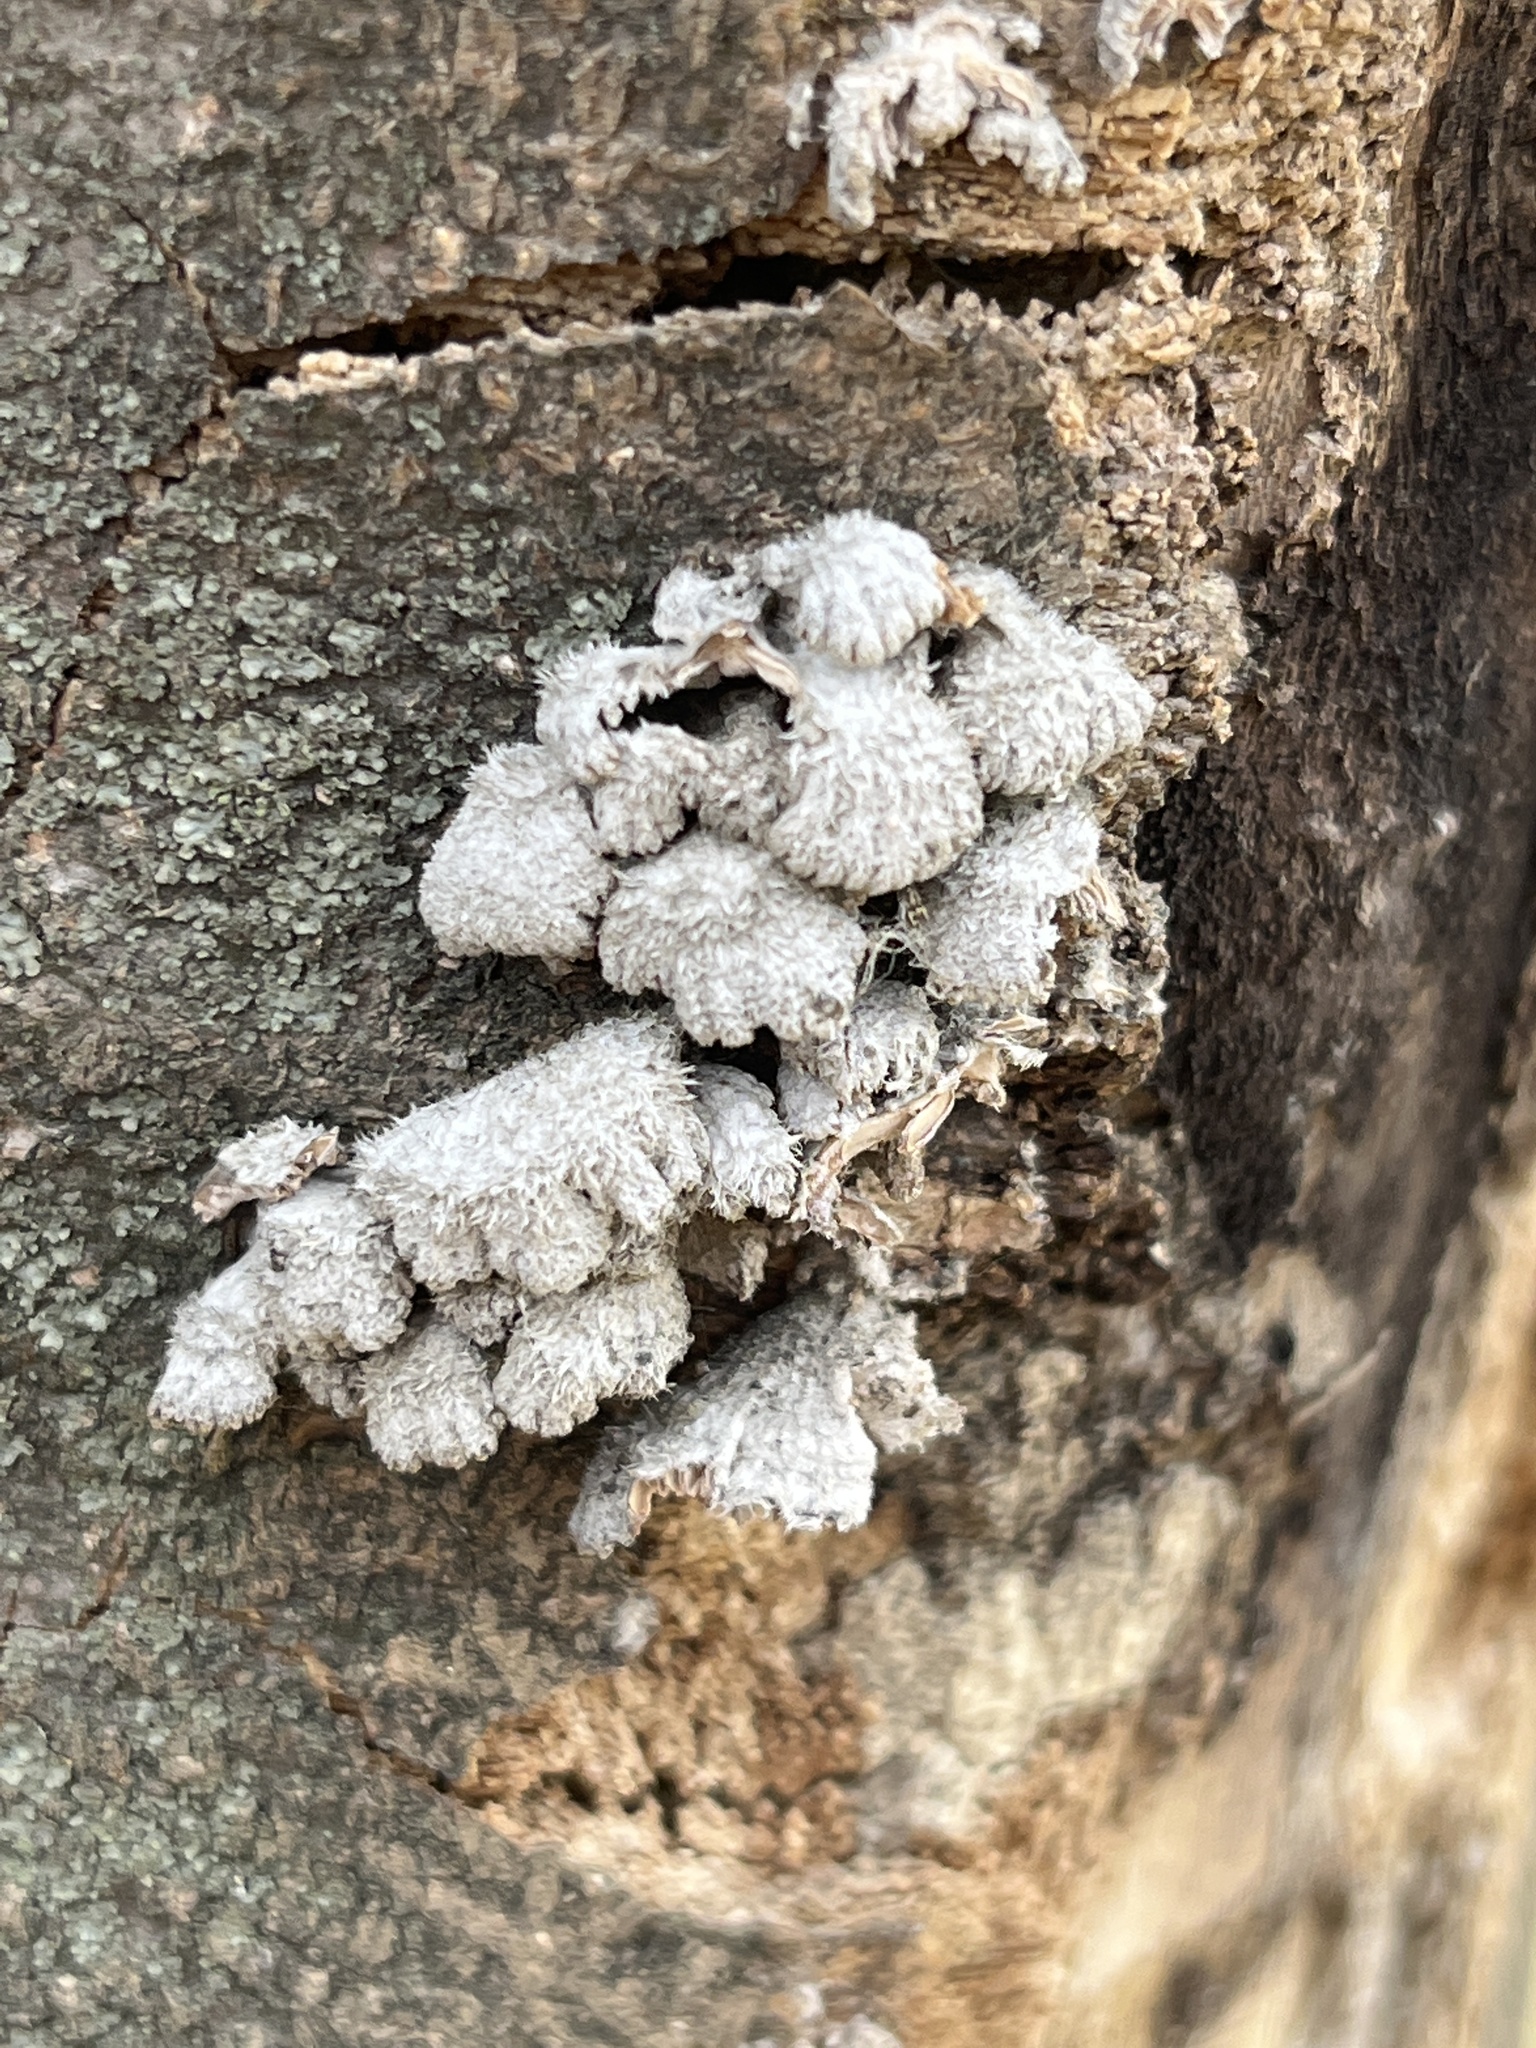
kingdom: Fungi
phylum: Basidiomycota
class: Agaricomycetes
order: Agaricales
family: Schizophyllaceae
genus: Schizophyllum
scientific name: Schizophyllum commune
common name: Common porecrust
